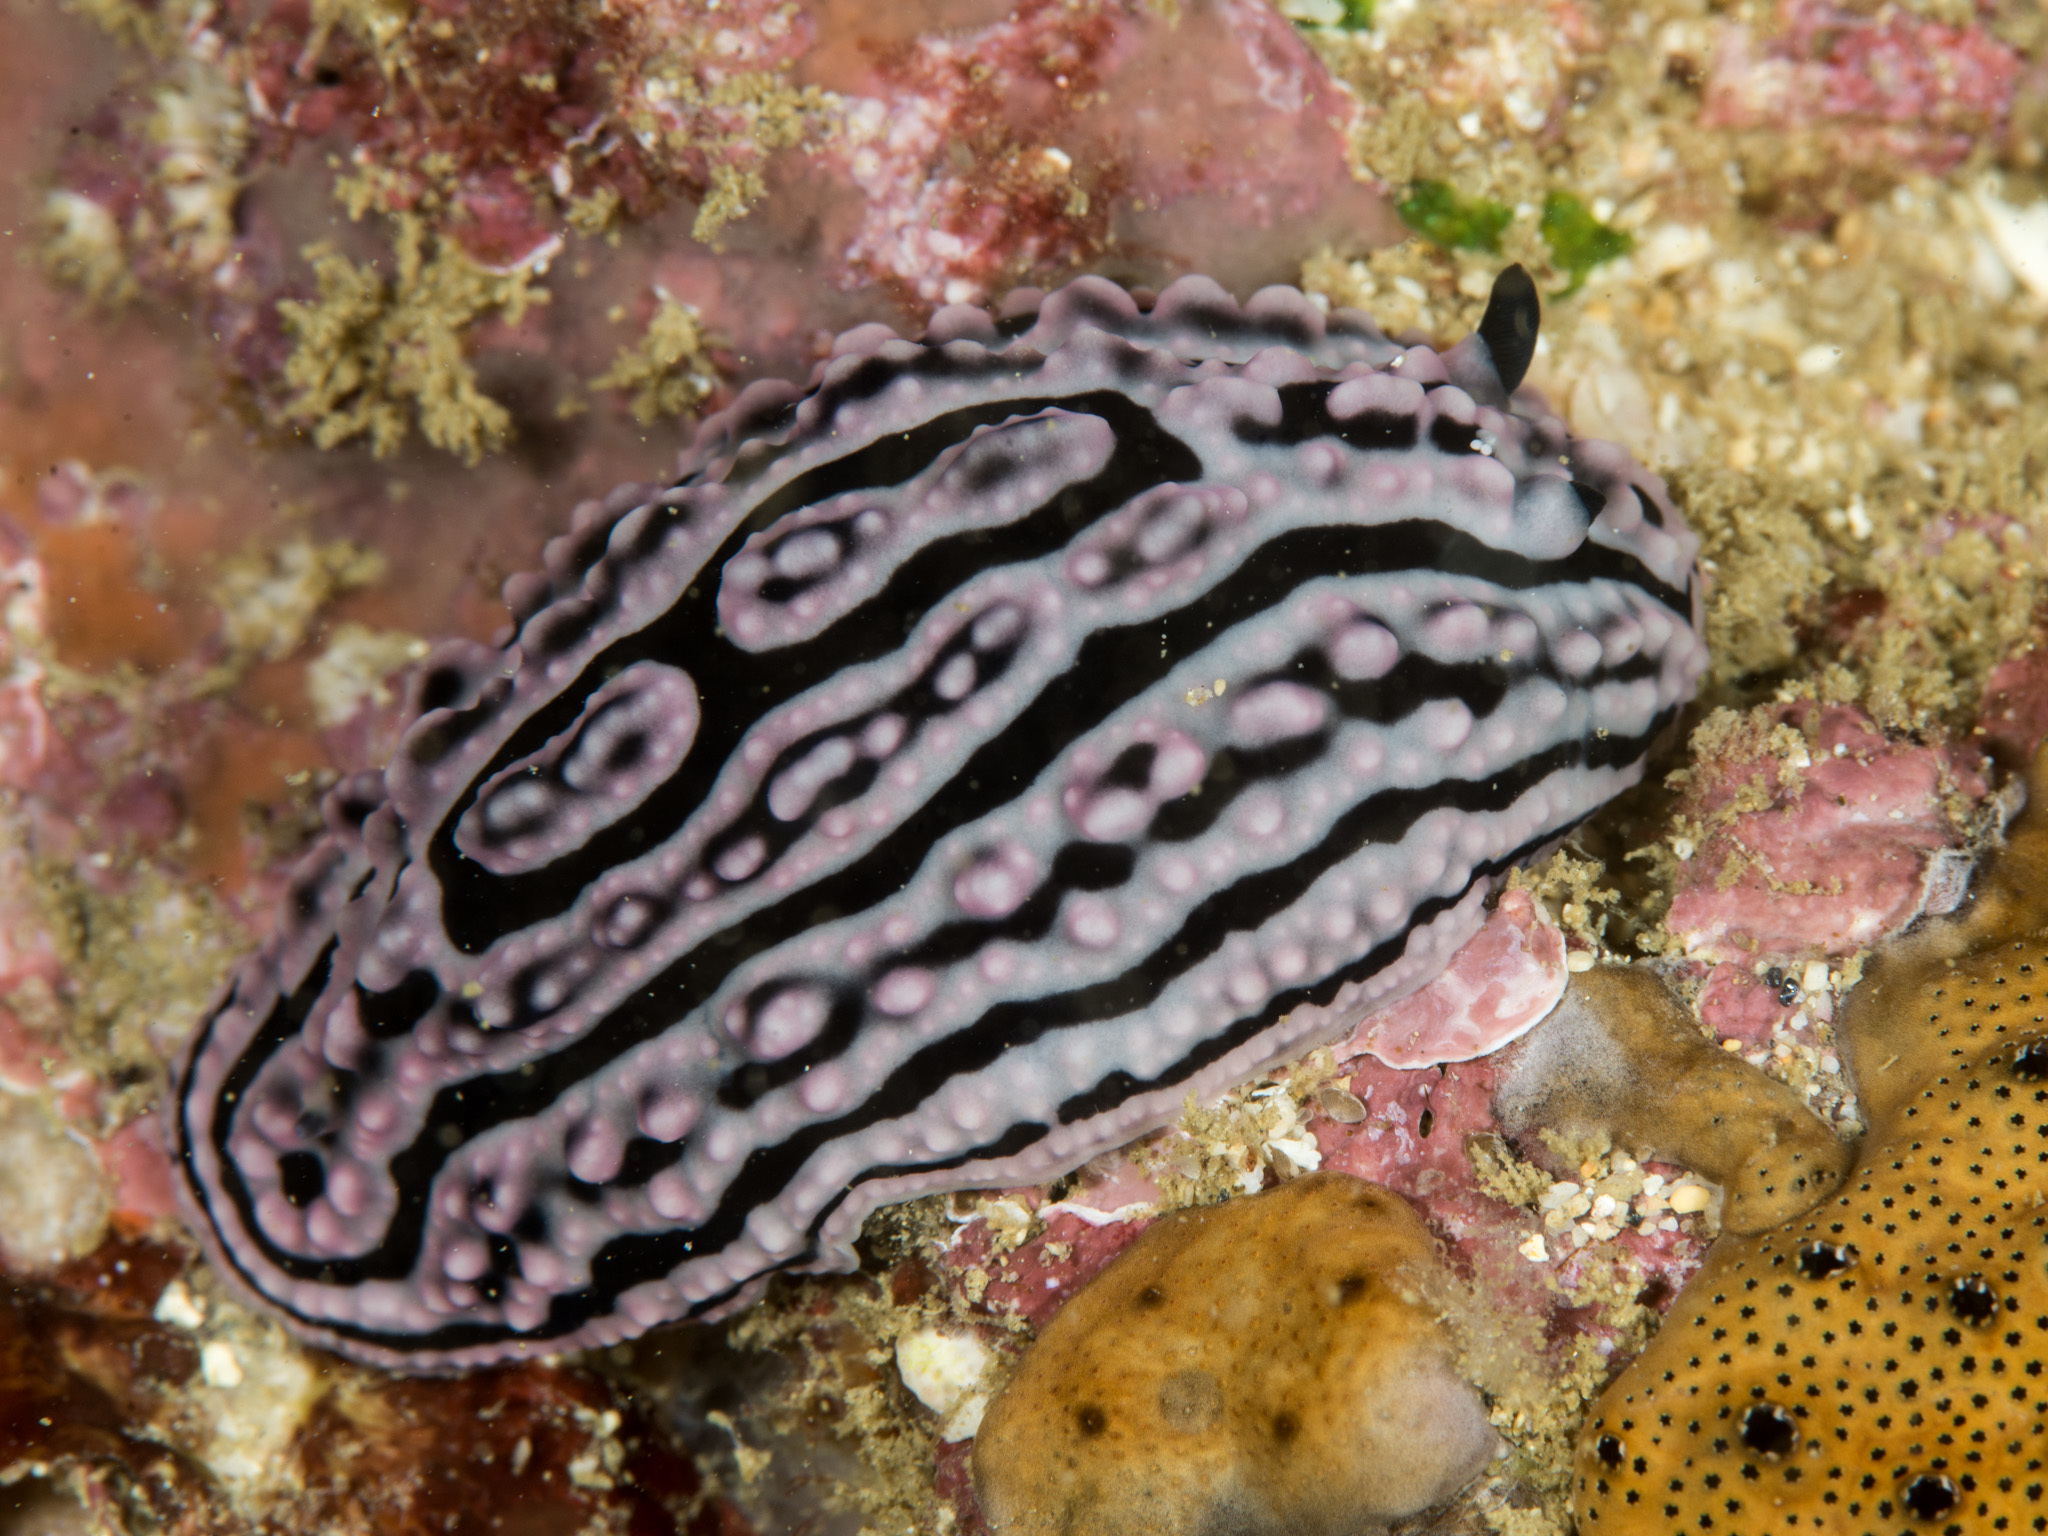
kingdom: Animalia
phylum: Mollusca
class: Gastropoda
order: Nudibranchia
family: Phyllidiidae
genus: Phyllidiella
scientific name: Phyllidiella meandrina
